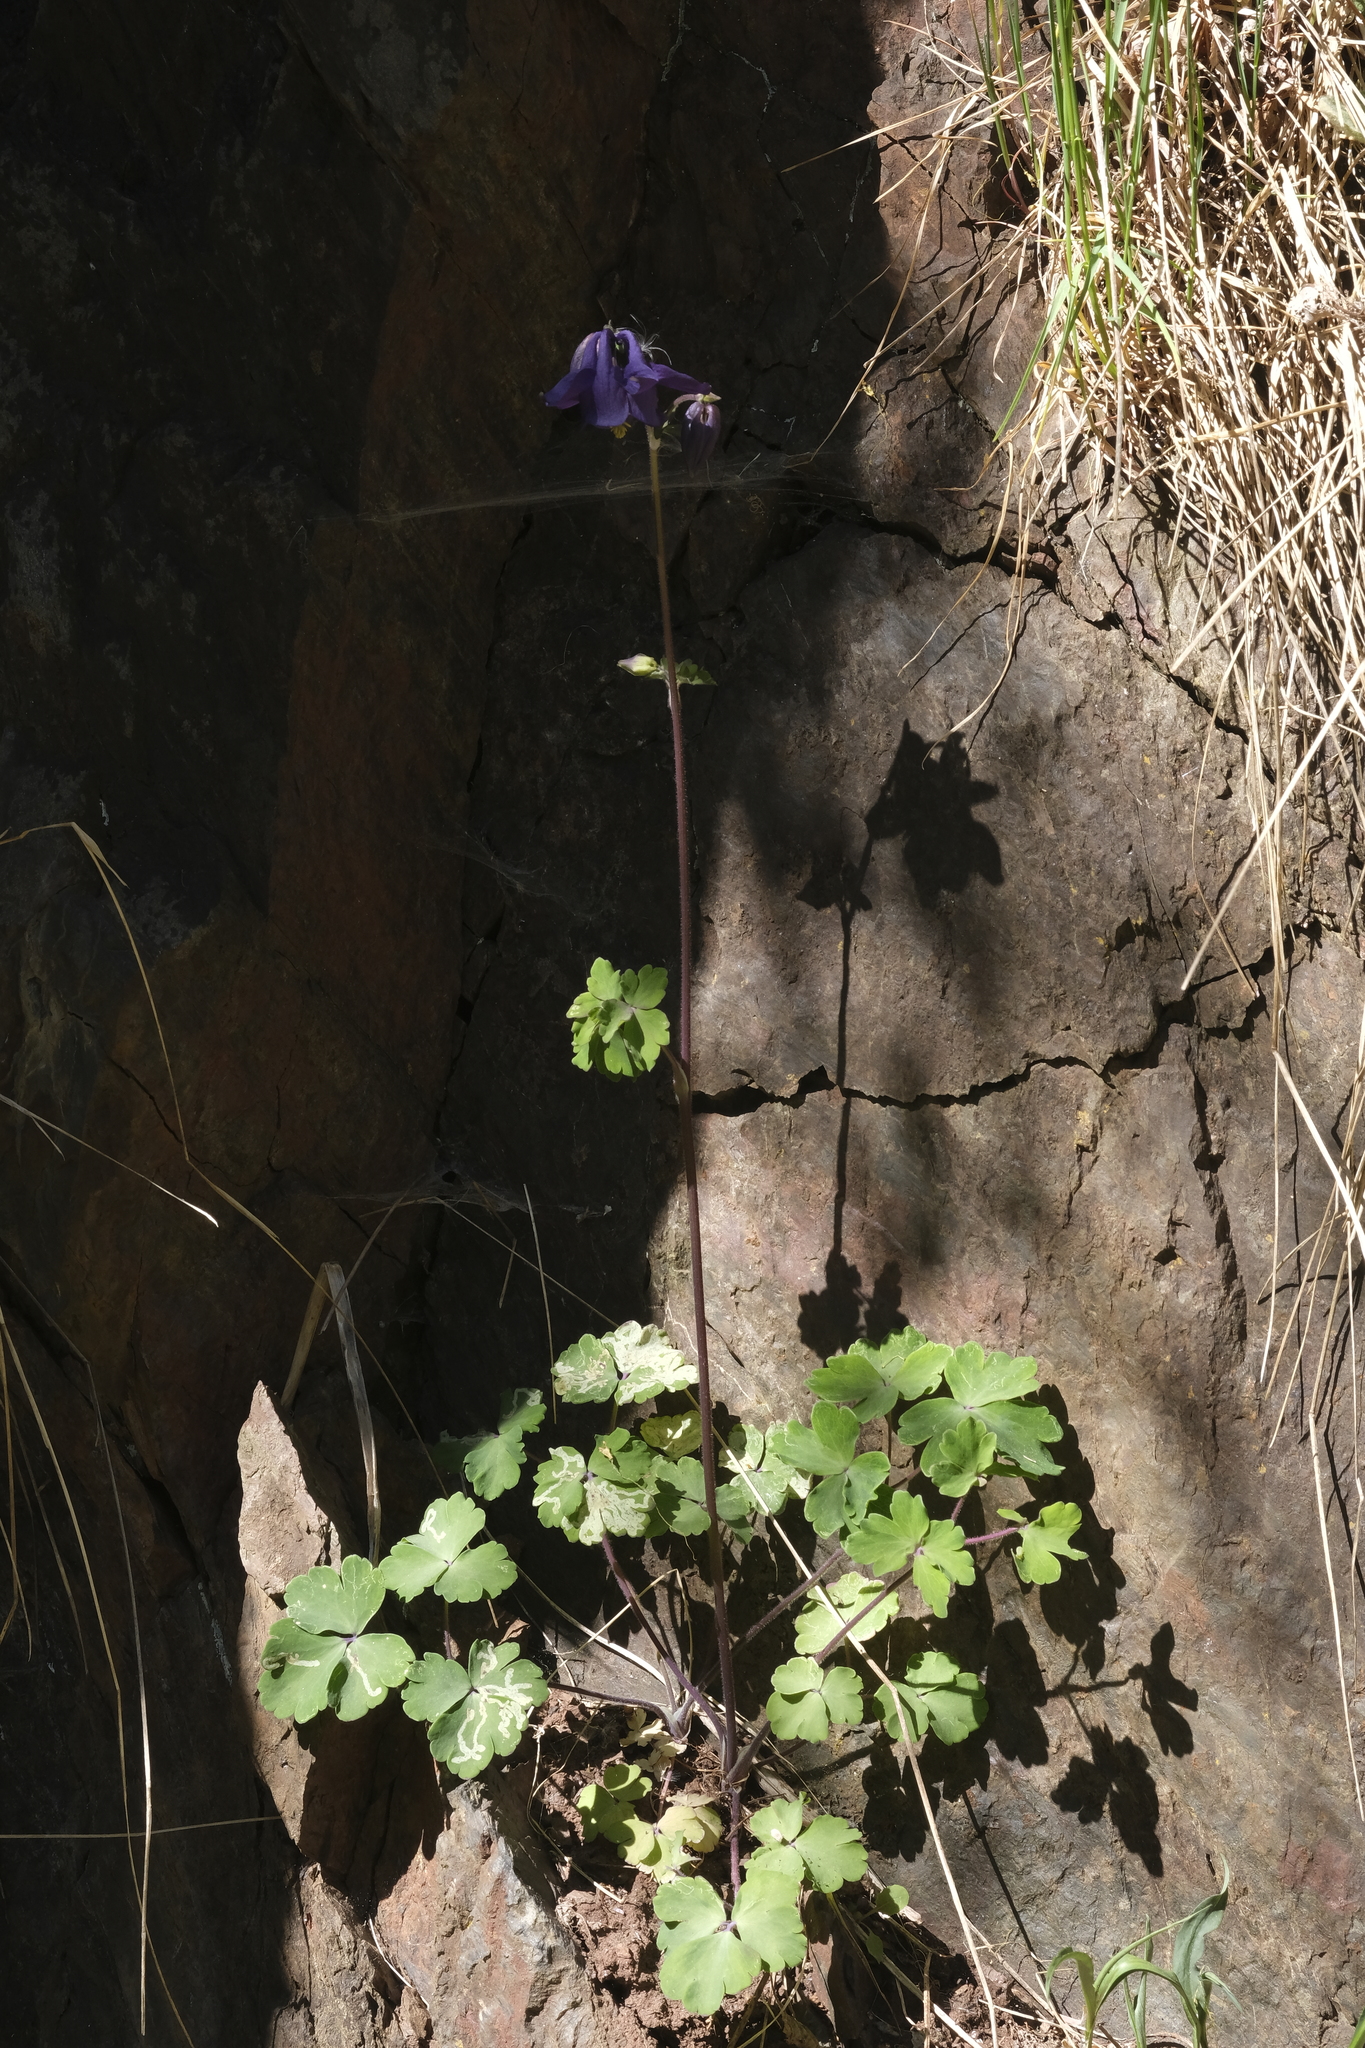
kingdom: Plantae
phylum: Tracheophyta
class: Magnoliopsida
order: Ranunculales
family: Ranunculaceae
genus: Aquilegia
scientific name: Aquilegia vulgaris
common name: Columbine
